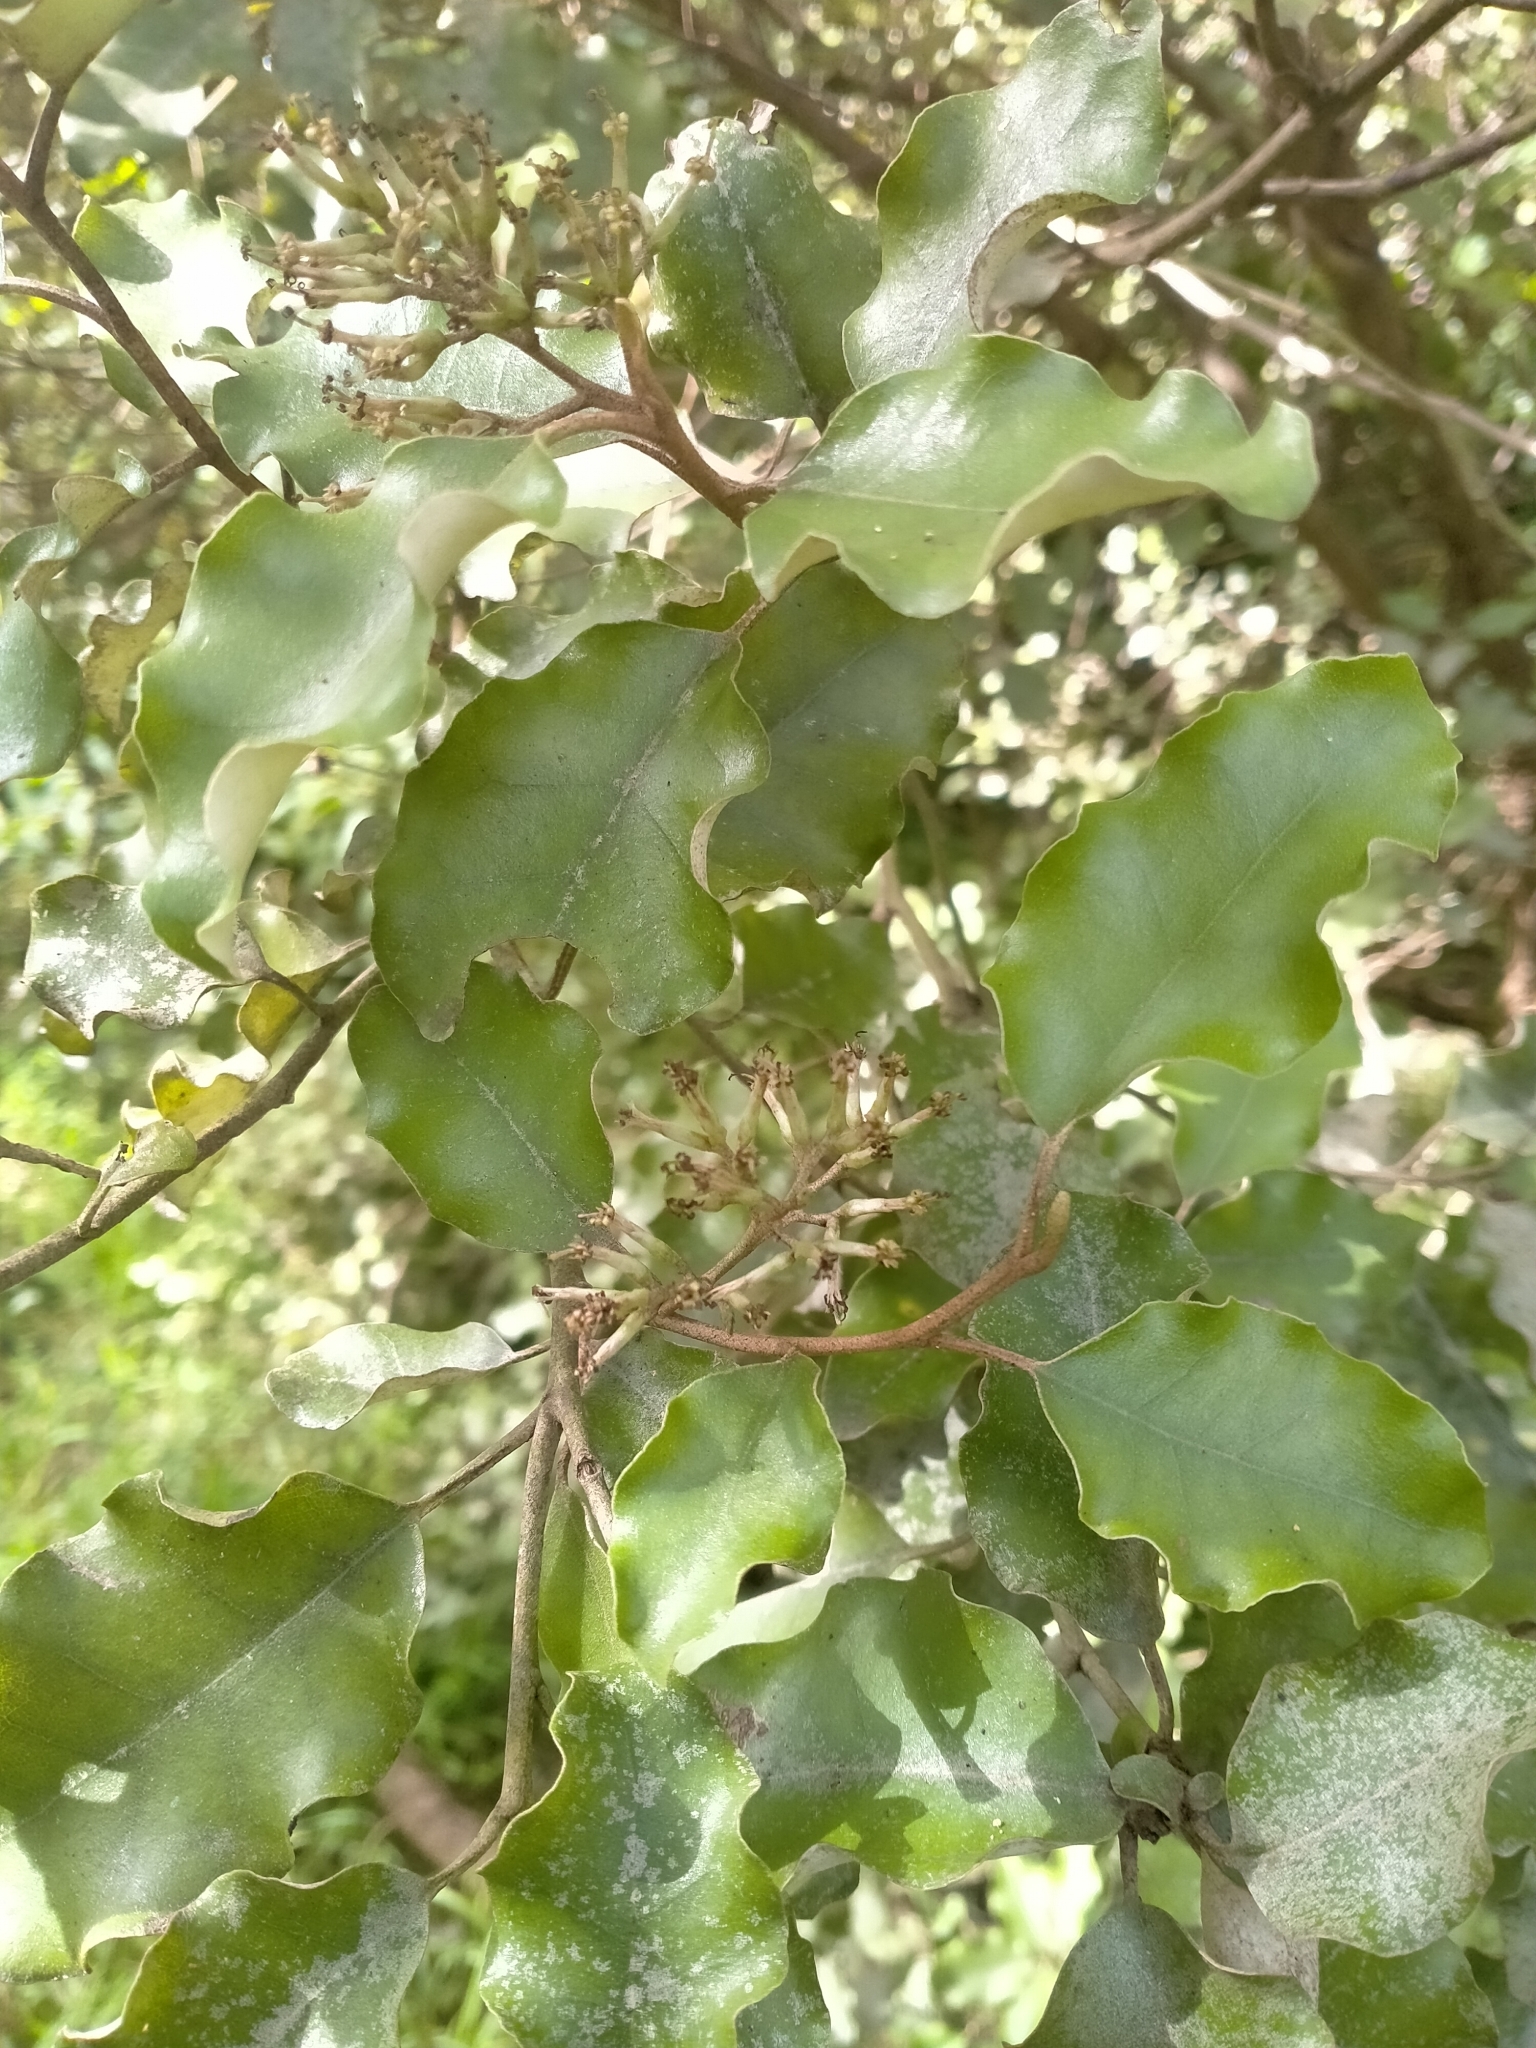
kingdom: Plantae
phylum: Tracheophyta
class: Magnoliopsida
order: Asterales
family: Asteraceae
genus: Olearia
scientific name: Olearia paniculata
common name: Akiraho
